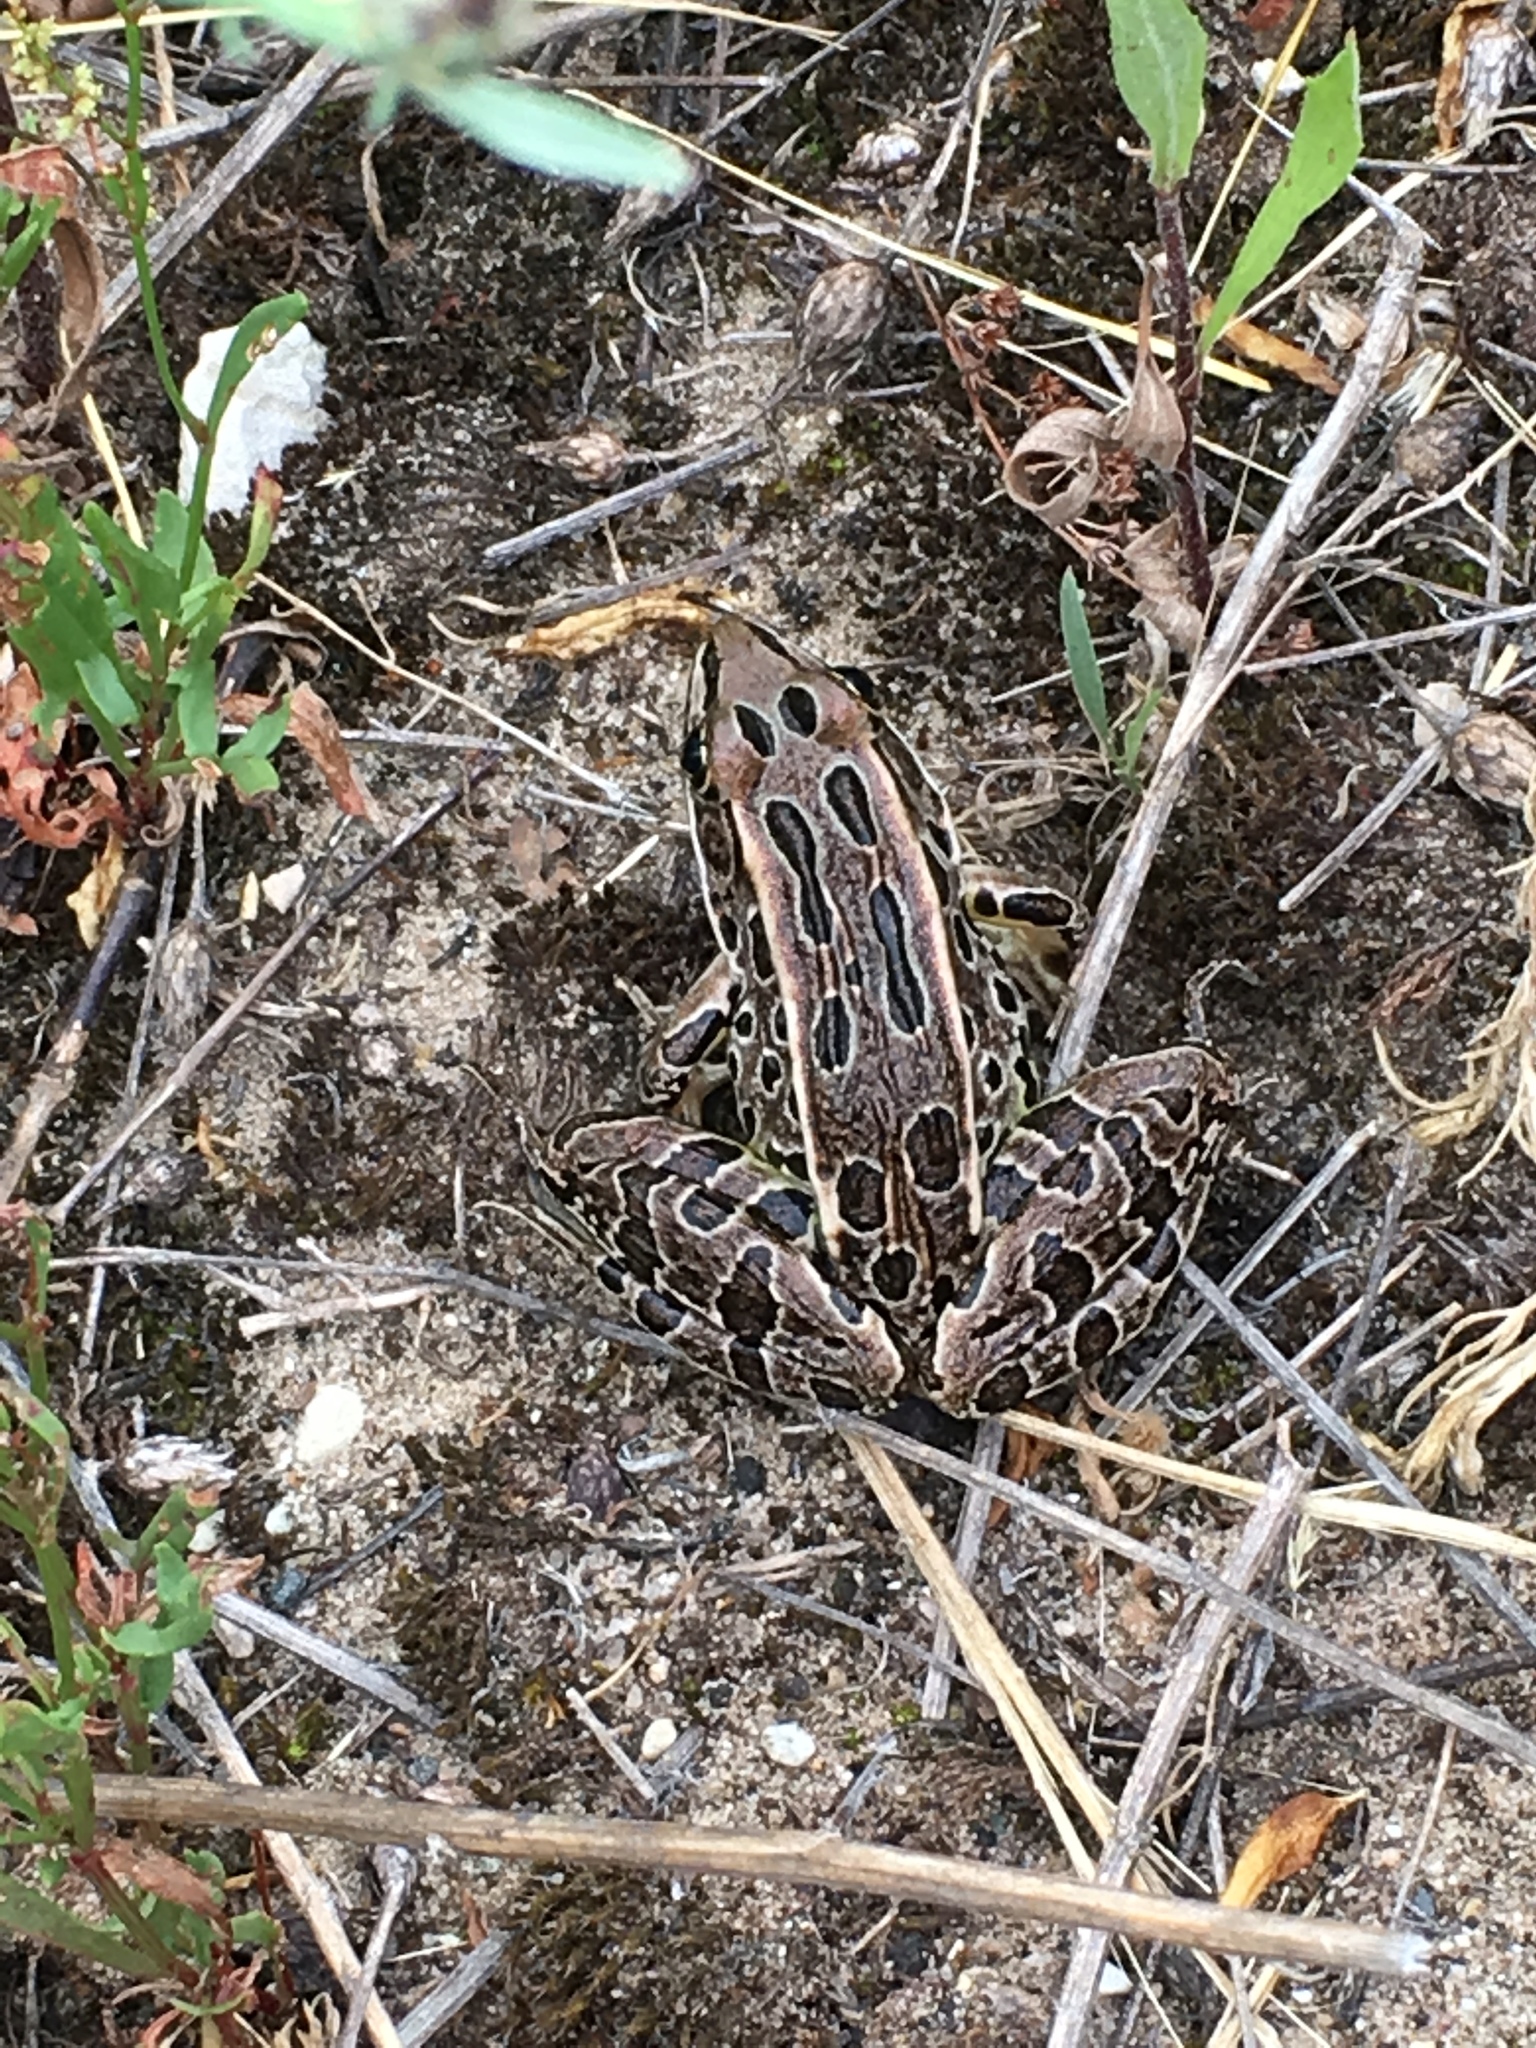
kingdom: Animalia
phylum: Chordata
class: Amphibia
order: Anura
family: Ranidae
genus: Lithobates
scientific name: Lithobates pipiens
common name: Northern leopard frog
